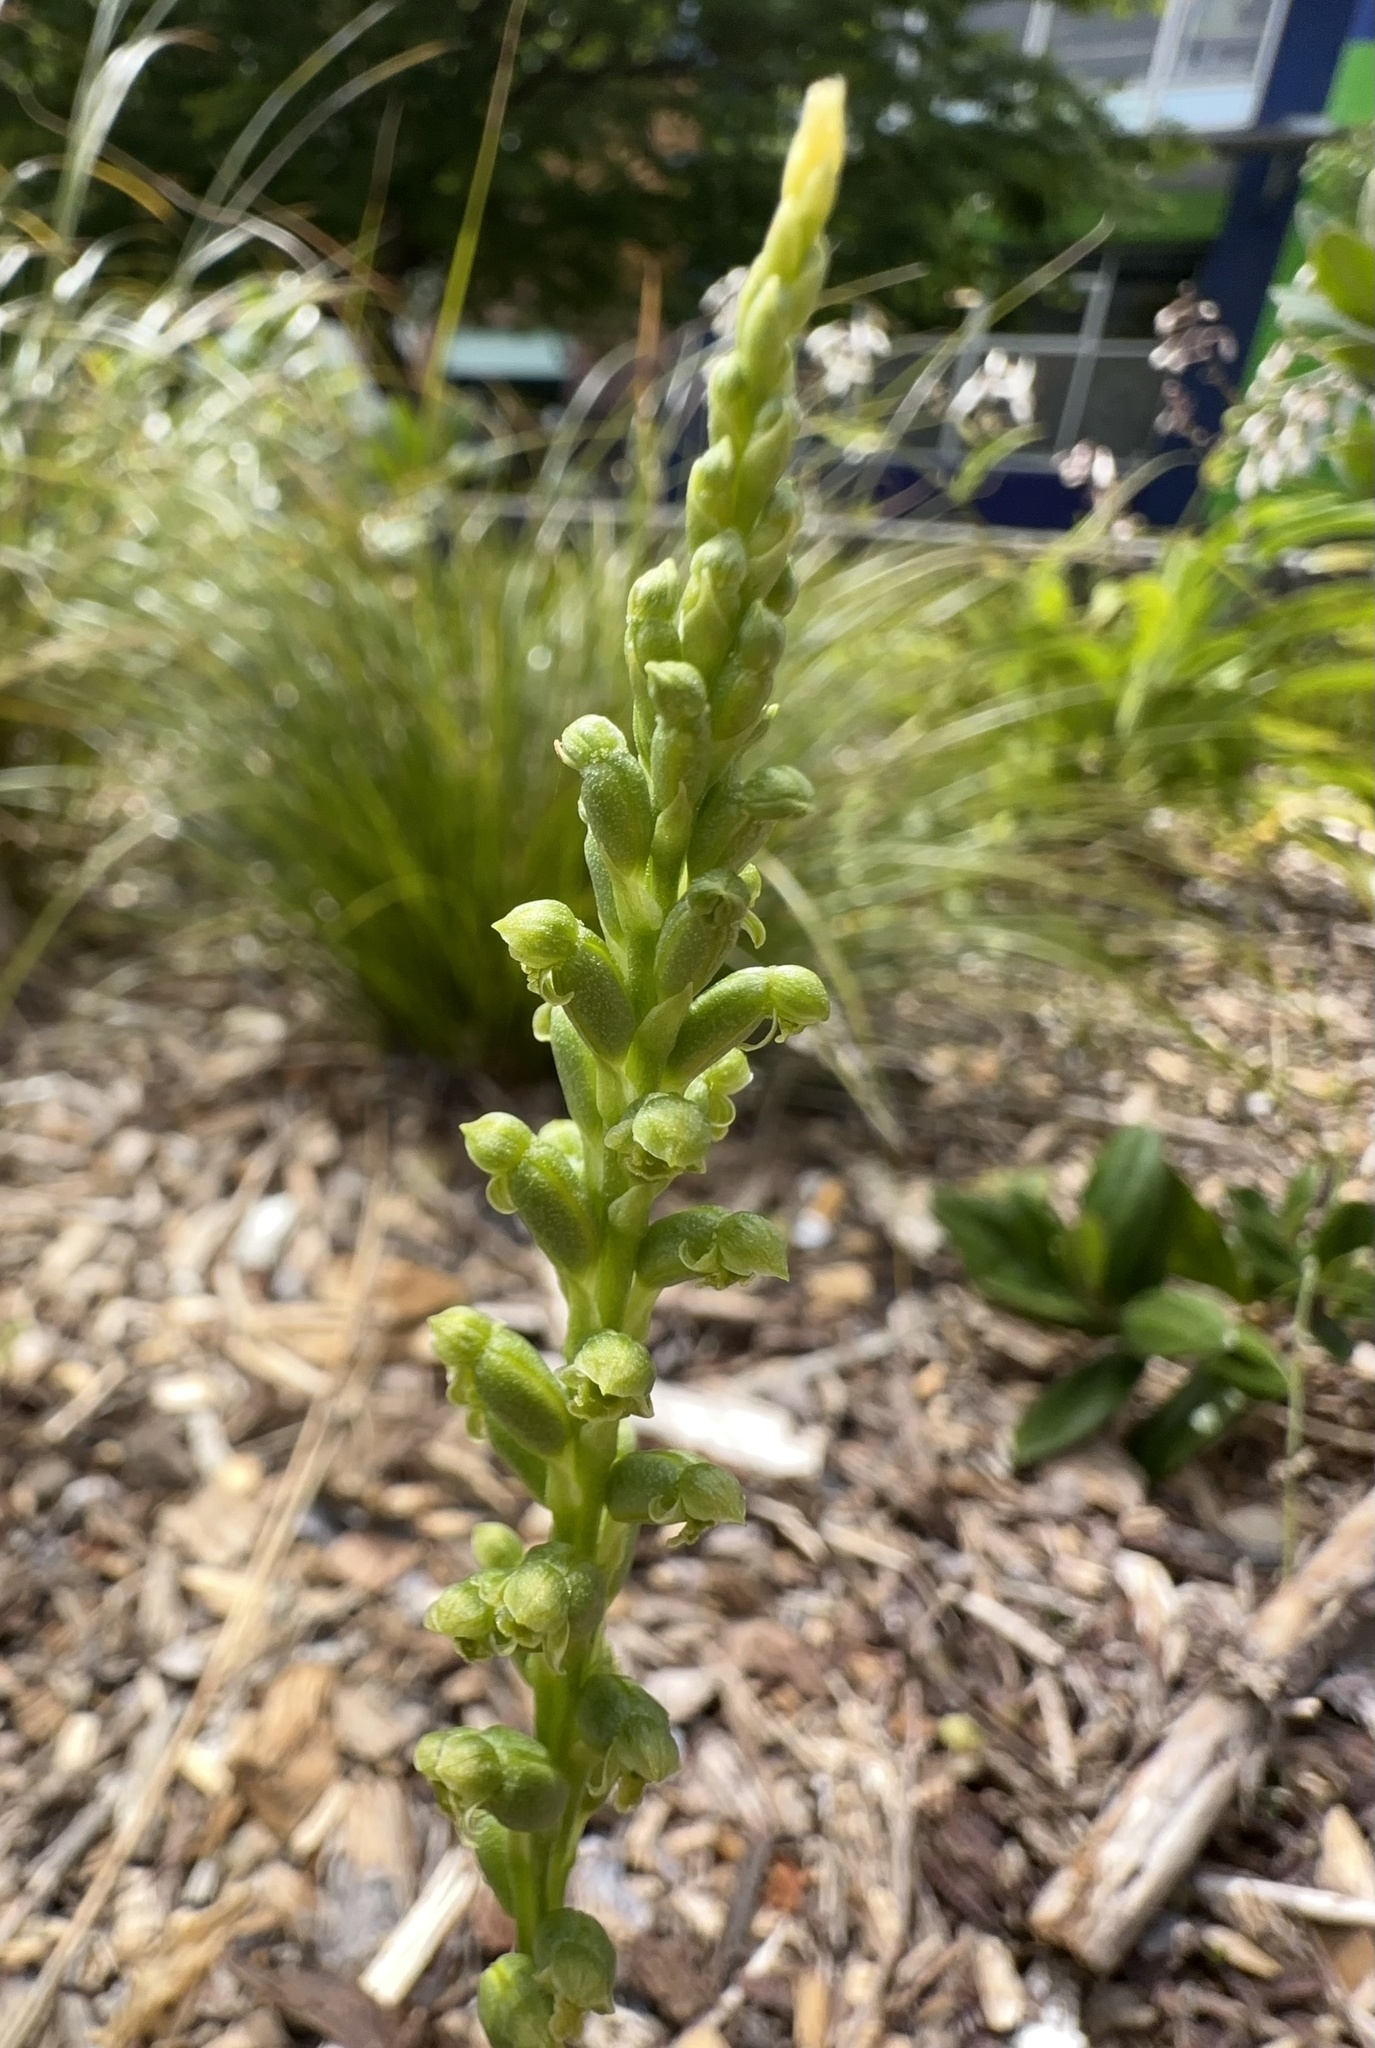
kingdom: Plantae
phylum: Tracheophyta
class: Liliopsida
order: Asparagales
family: Orchidaceae
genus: Microtis
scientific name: Microtis unifolia
